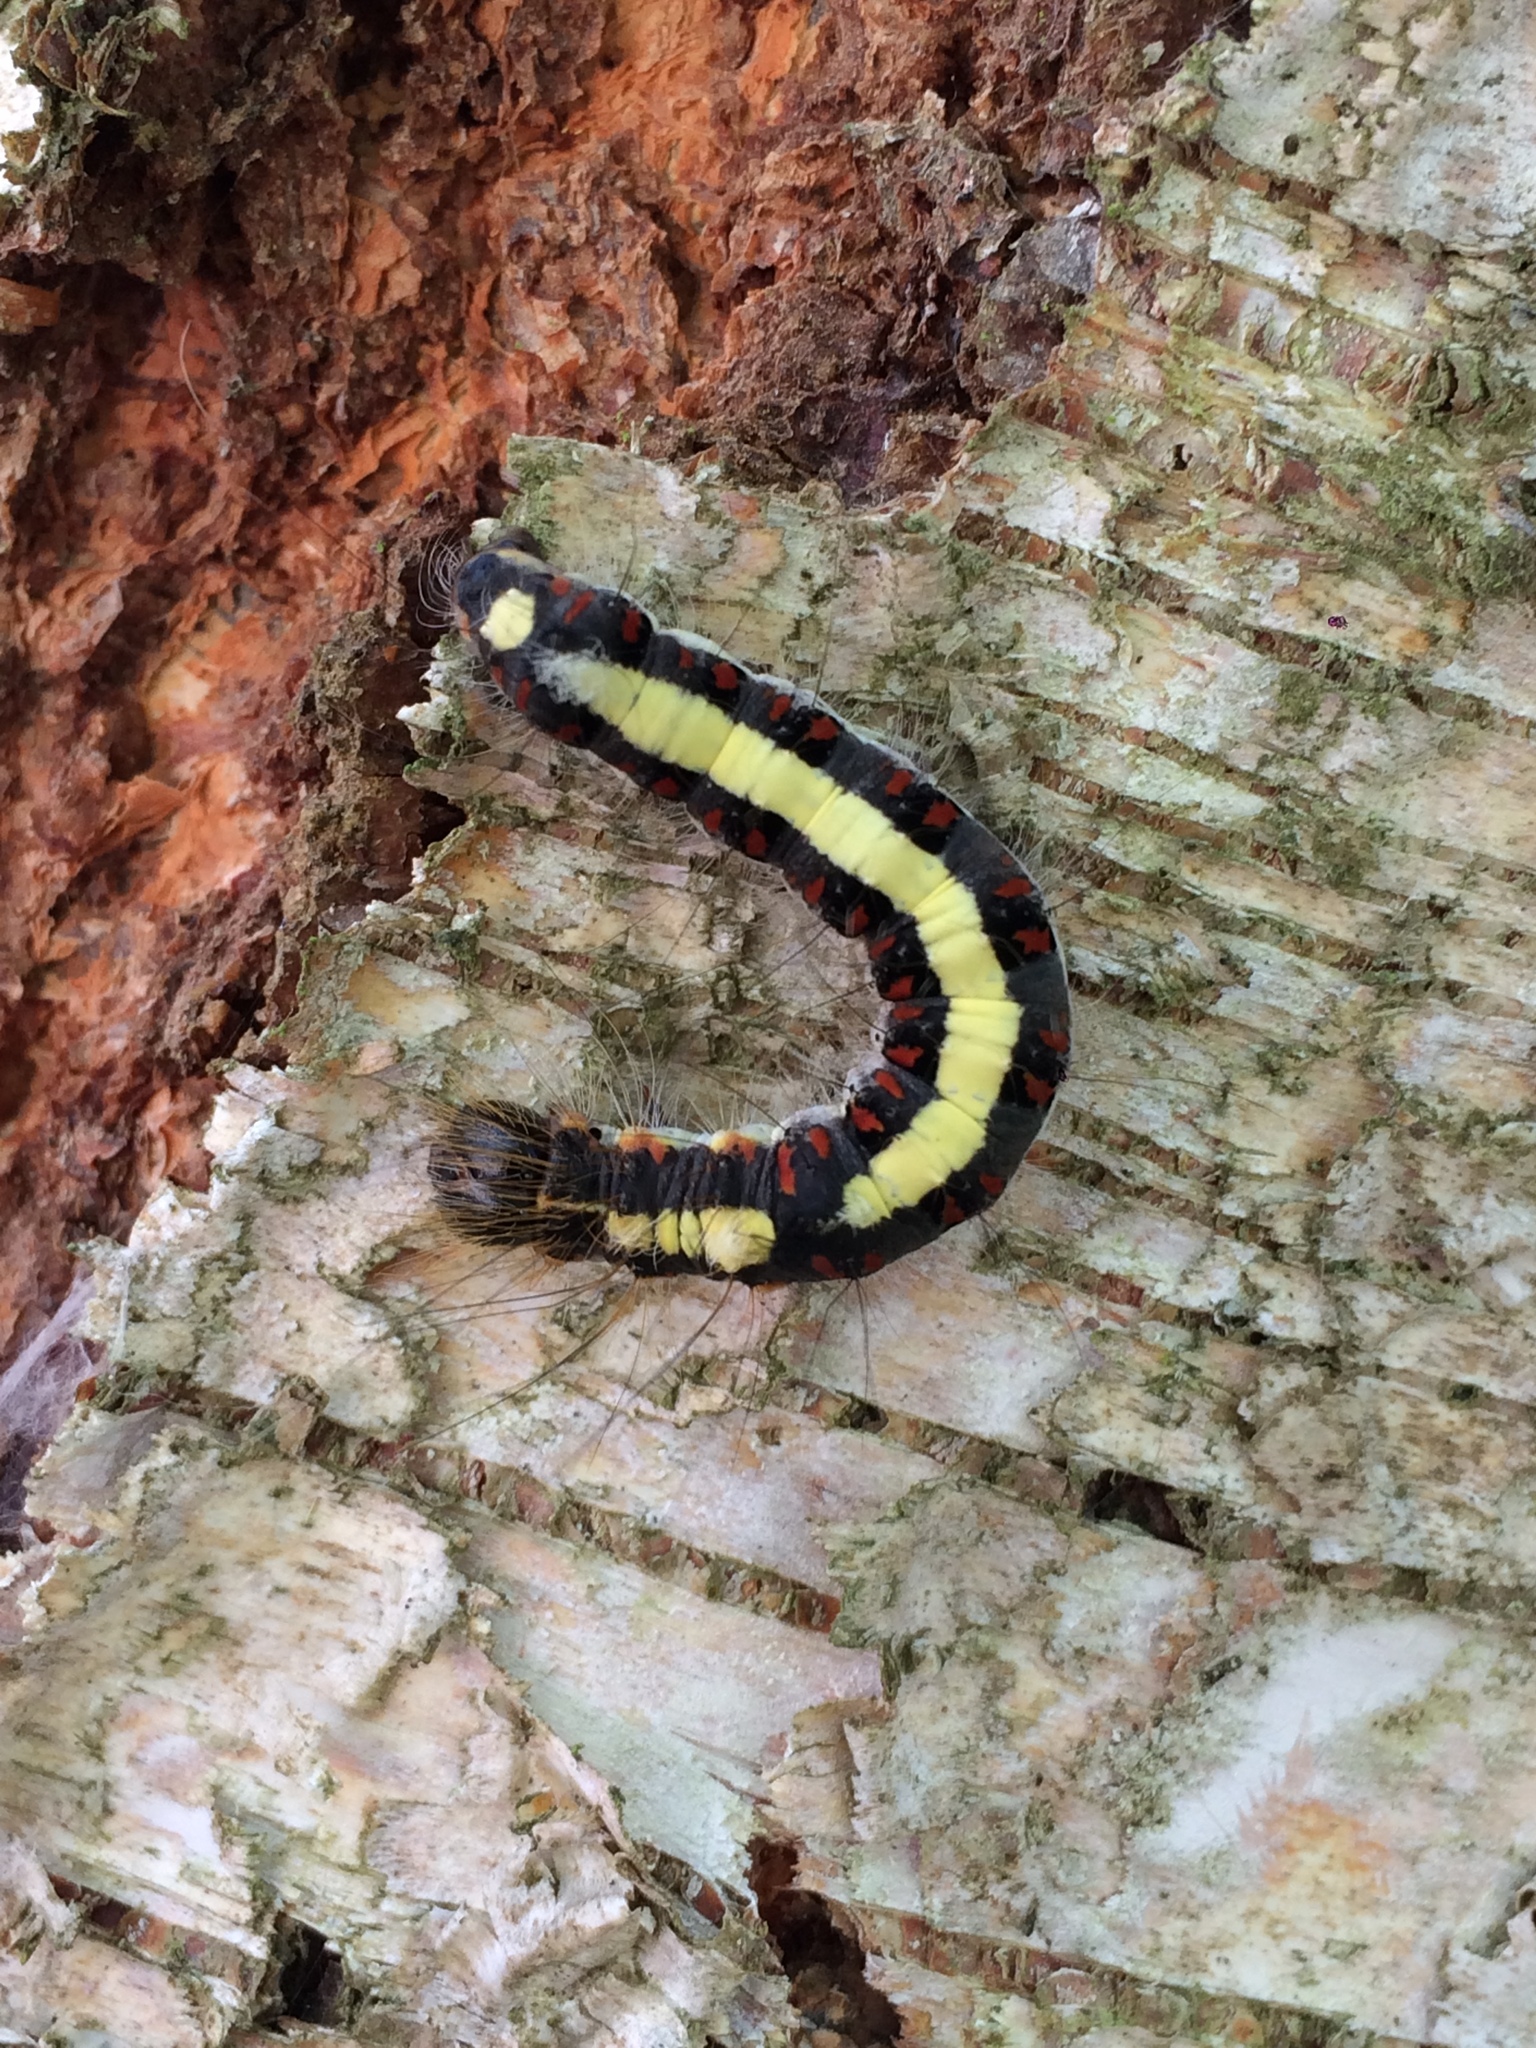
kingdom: Animalia
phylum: Arthropoda
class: Insecta
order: Lepidoptera
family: Noctuidae
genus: Acronicta
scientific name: Acronicta psi
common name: Grey dagger
